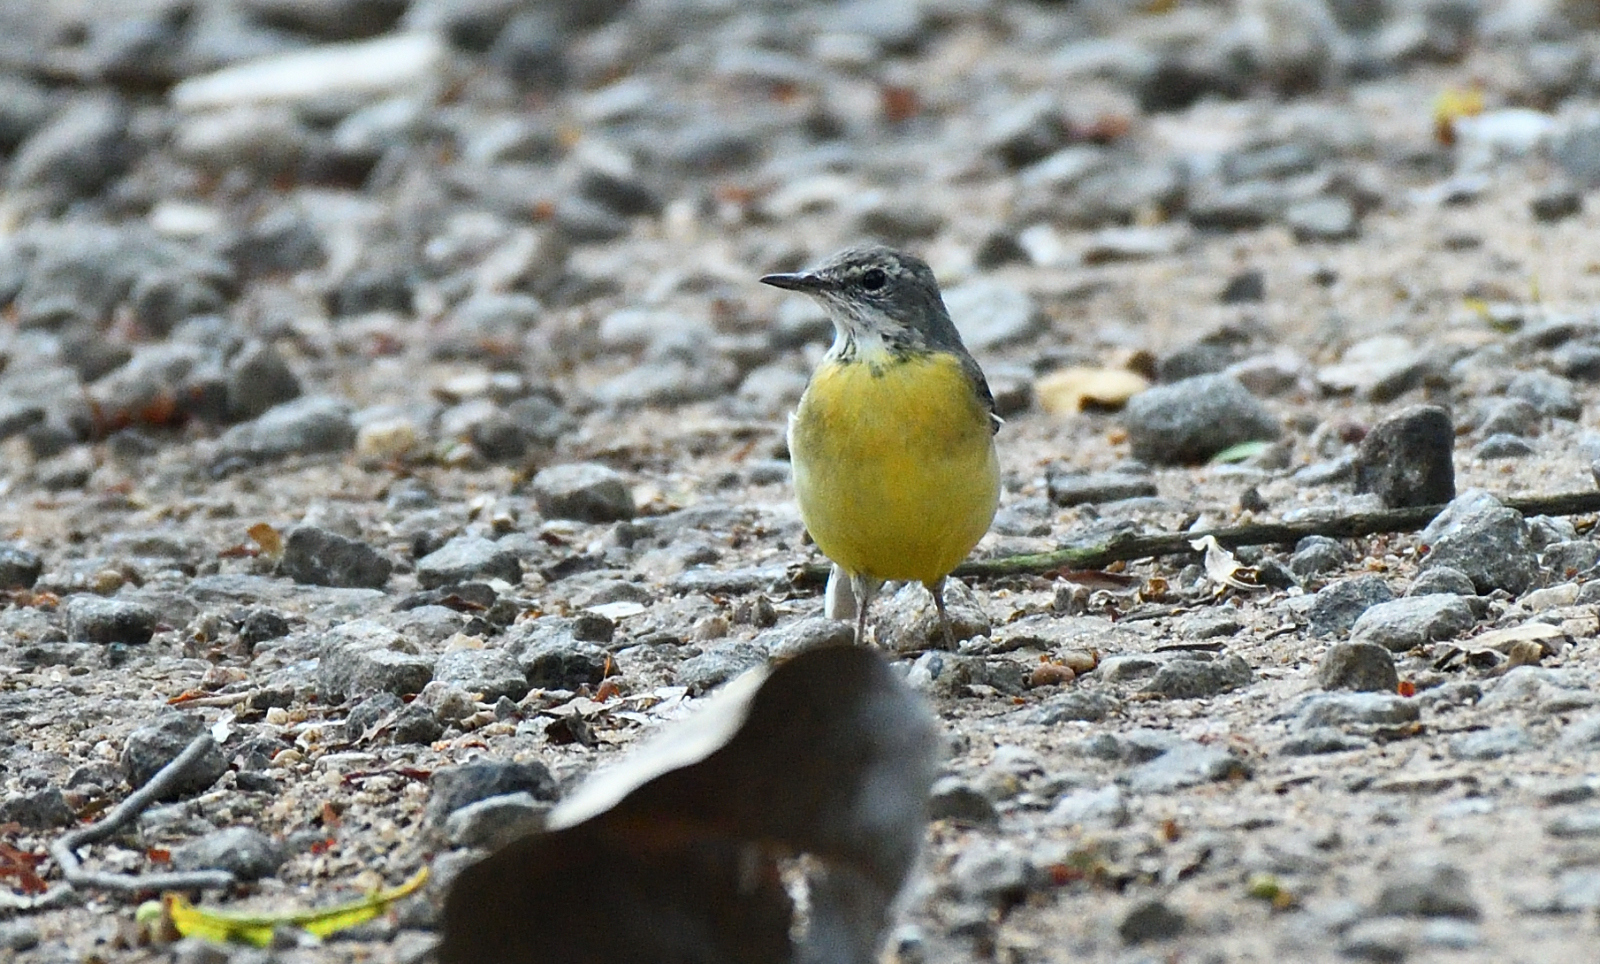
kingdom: Animalia
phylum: Chordata
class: Aves
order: Passeriformes
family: Motacillidae
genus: Motacilla
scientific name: Motacilla cinerea
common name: Grey wagtail
